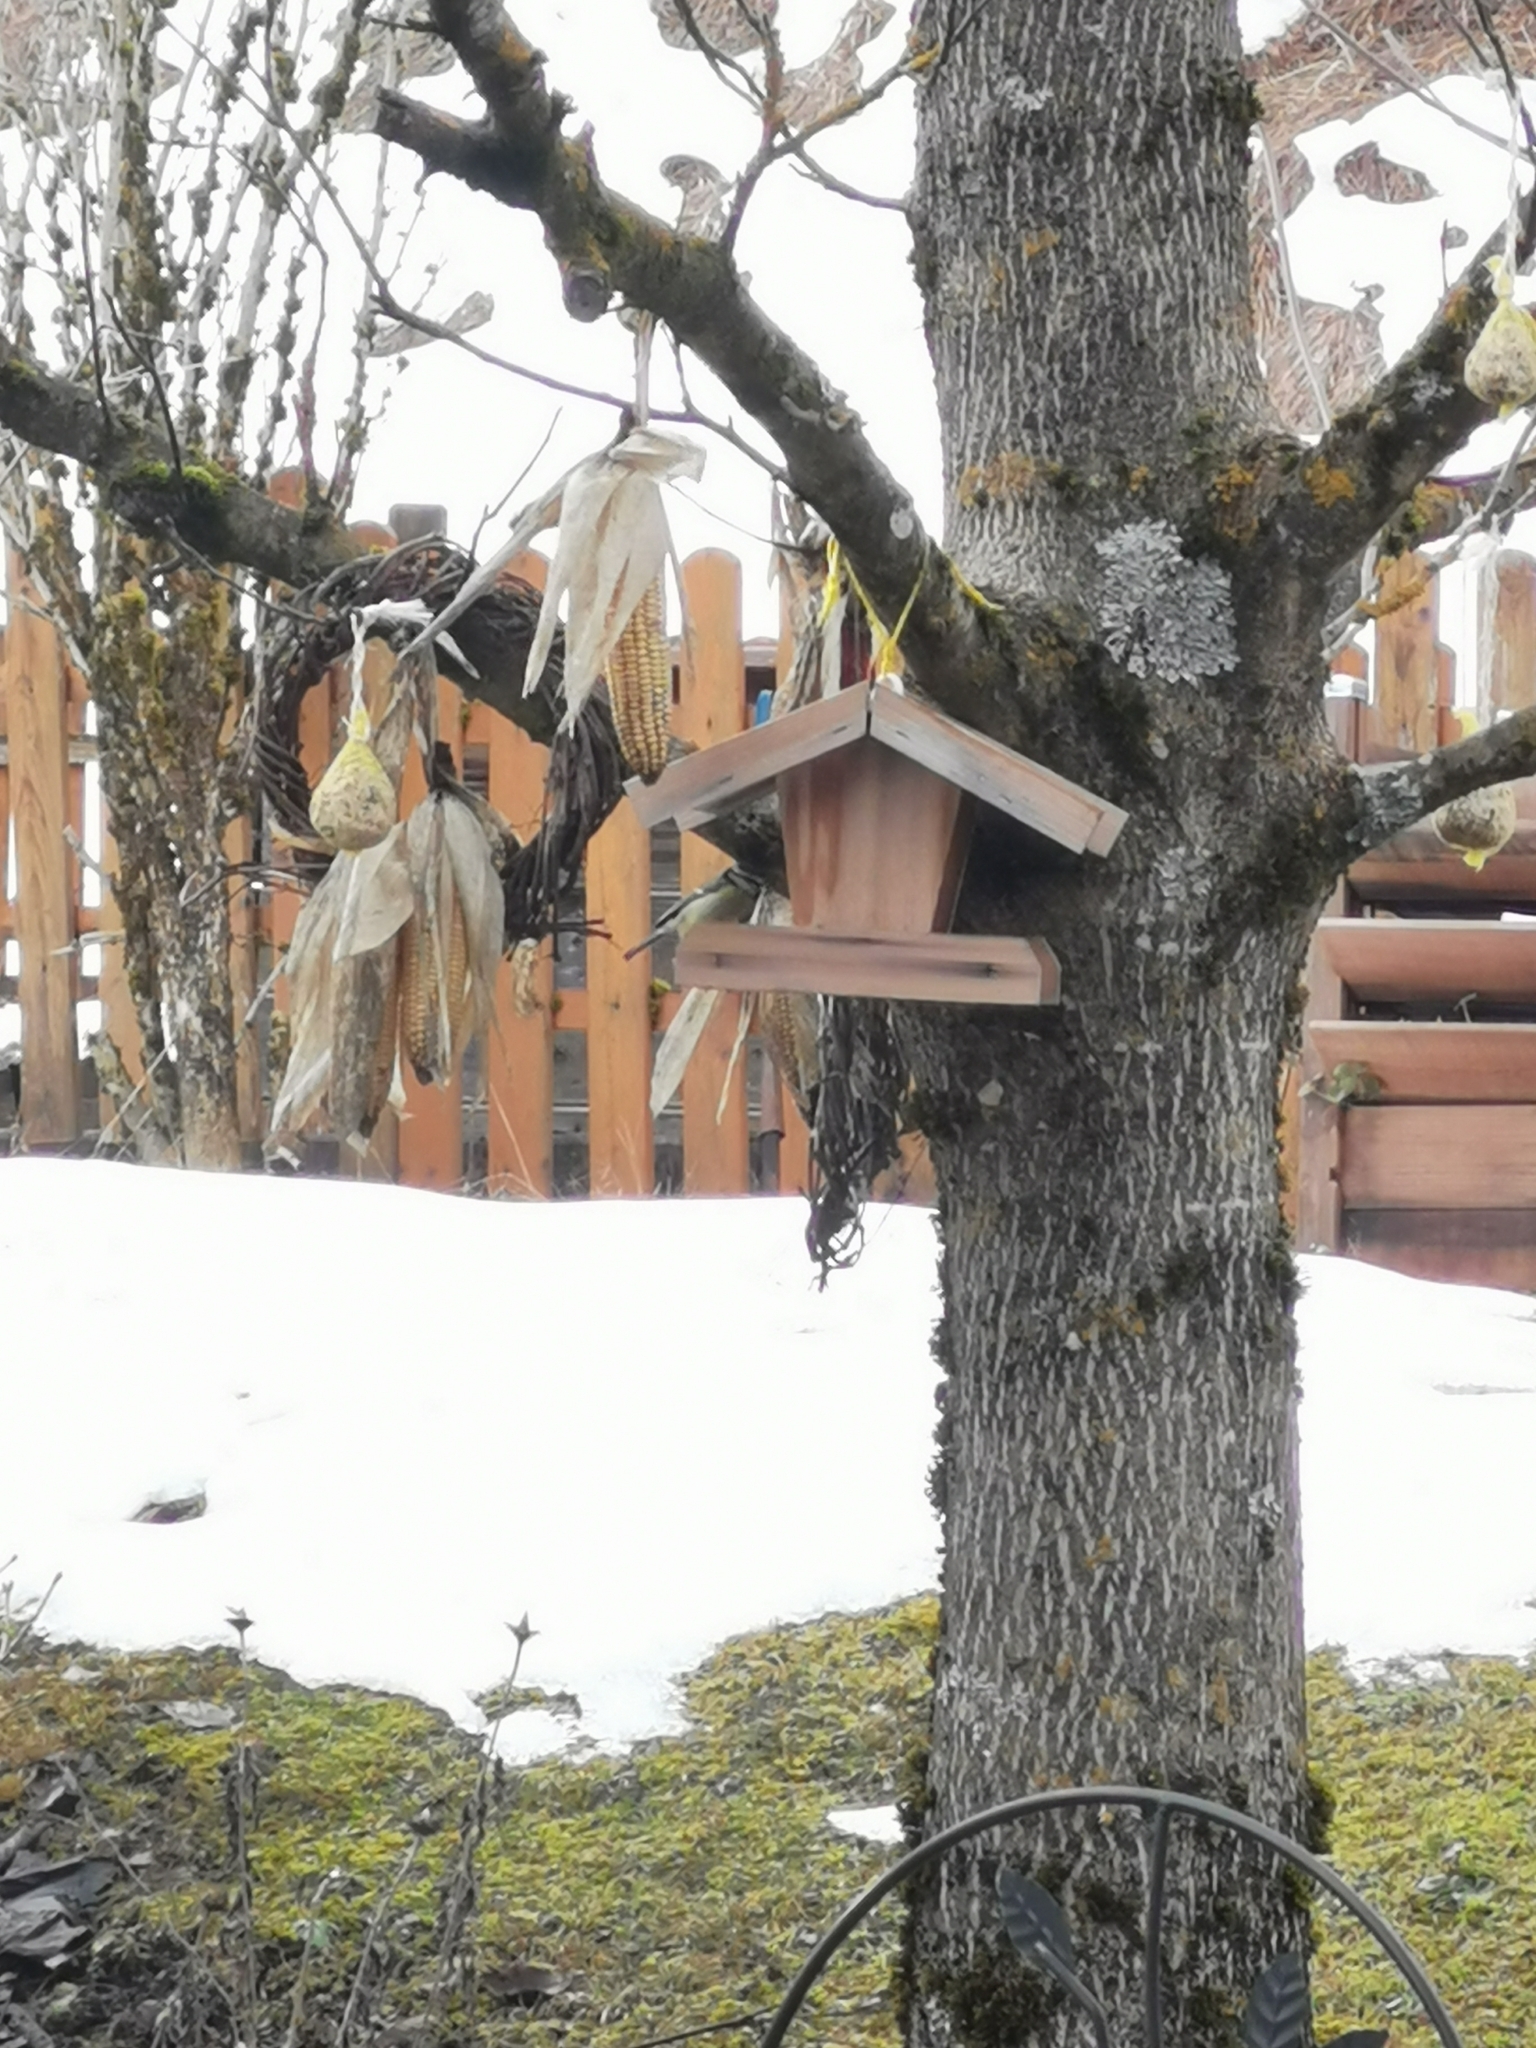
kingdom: Animalia
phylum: Chordata
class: Aves
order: Passeriformes
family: Paridae
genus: Cyanistes
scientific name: Cyanistes caeruleus
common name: Eurasian blue tit
